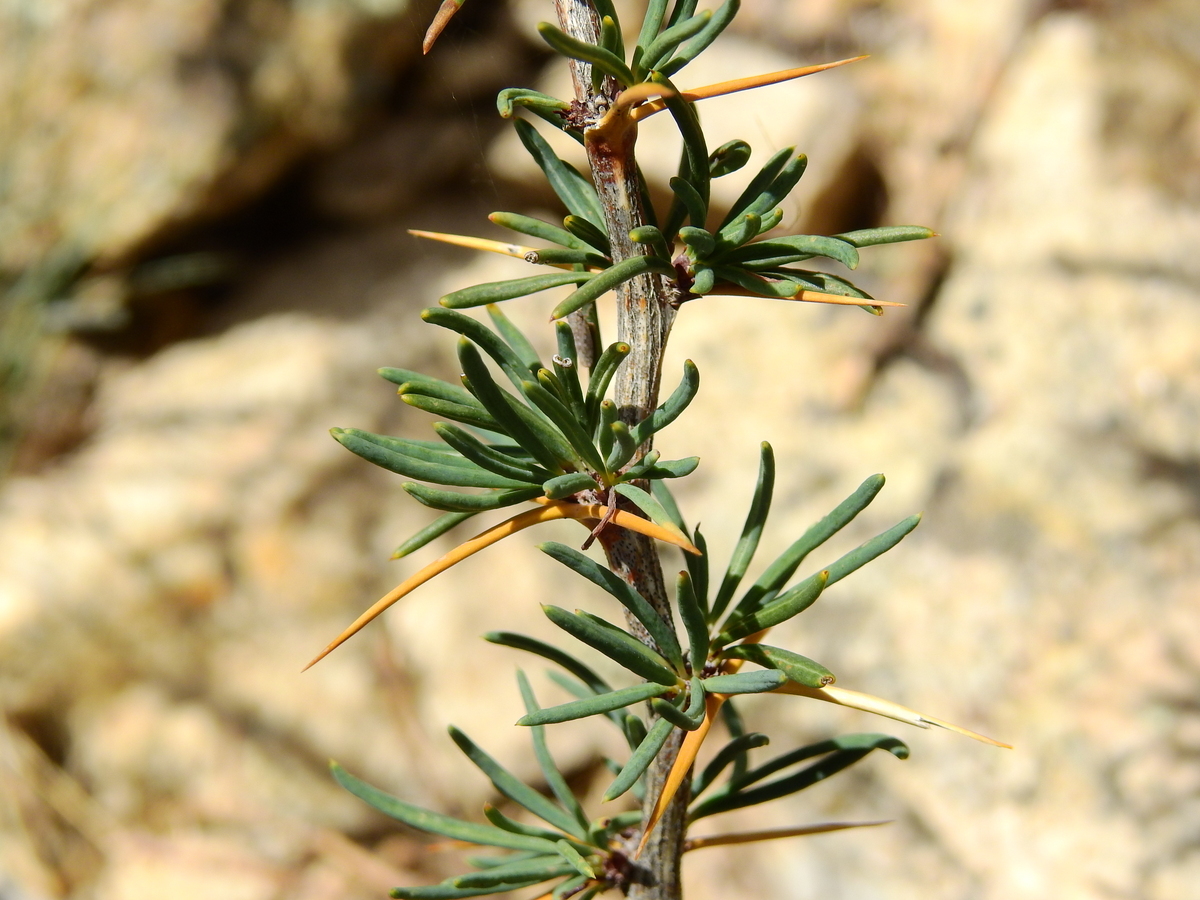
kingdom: Plantae
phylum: Tracheophyta
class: Magnoliopsida
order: Ranunculales
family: Berberidaceae
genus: Berberis
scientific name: Berberis empetrifolia
